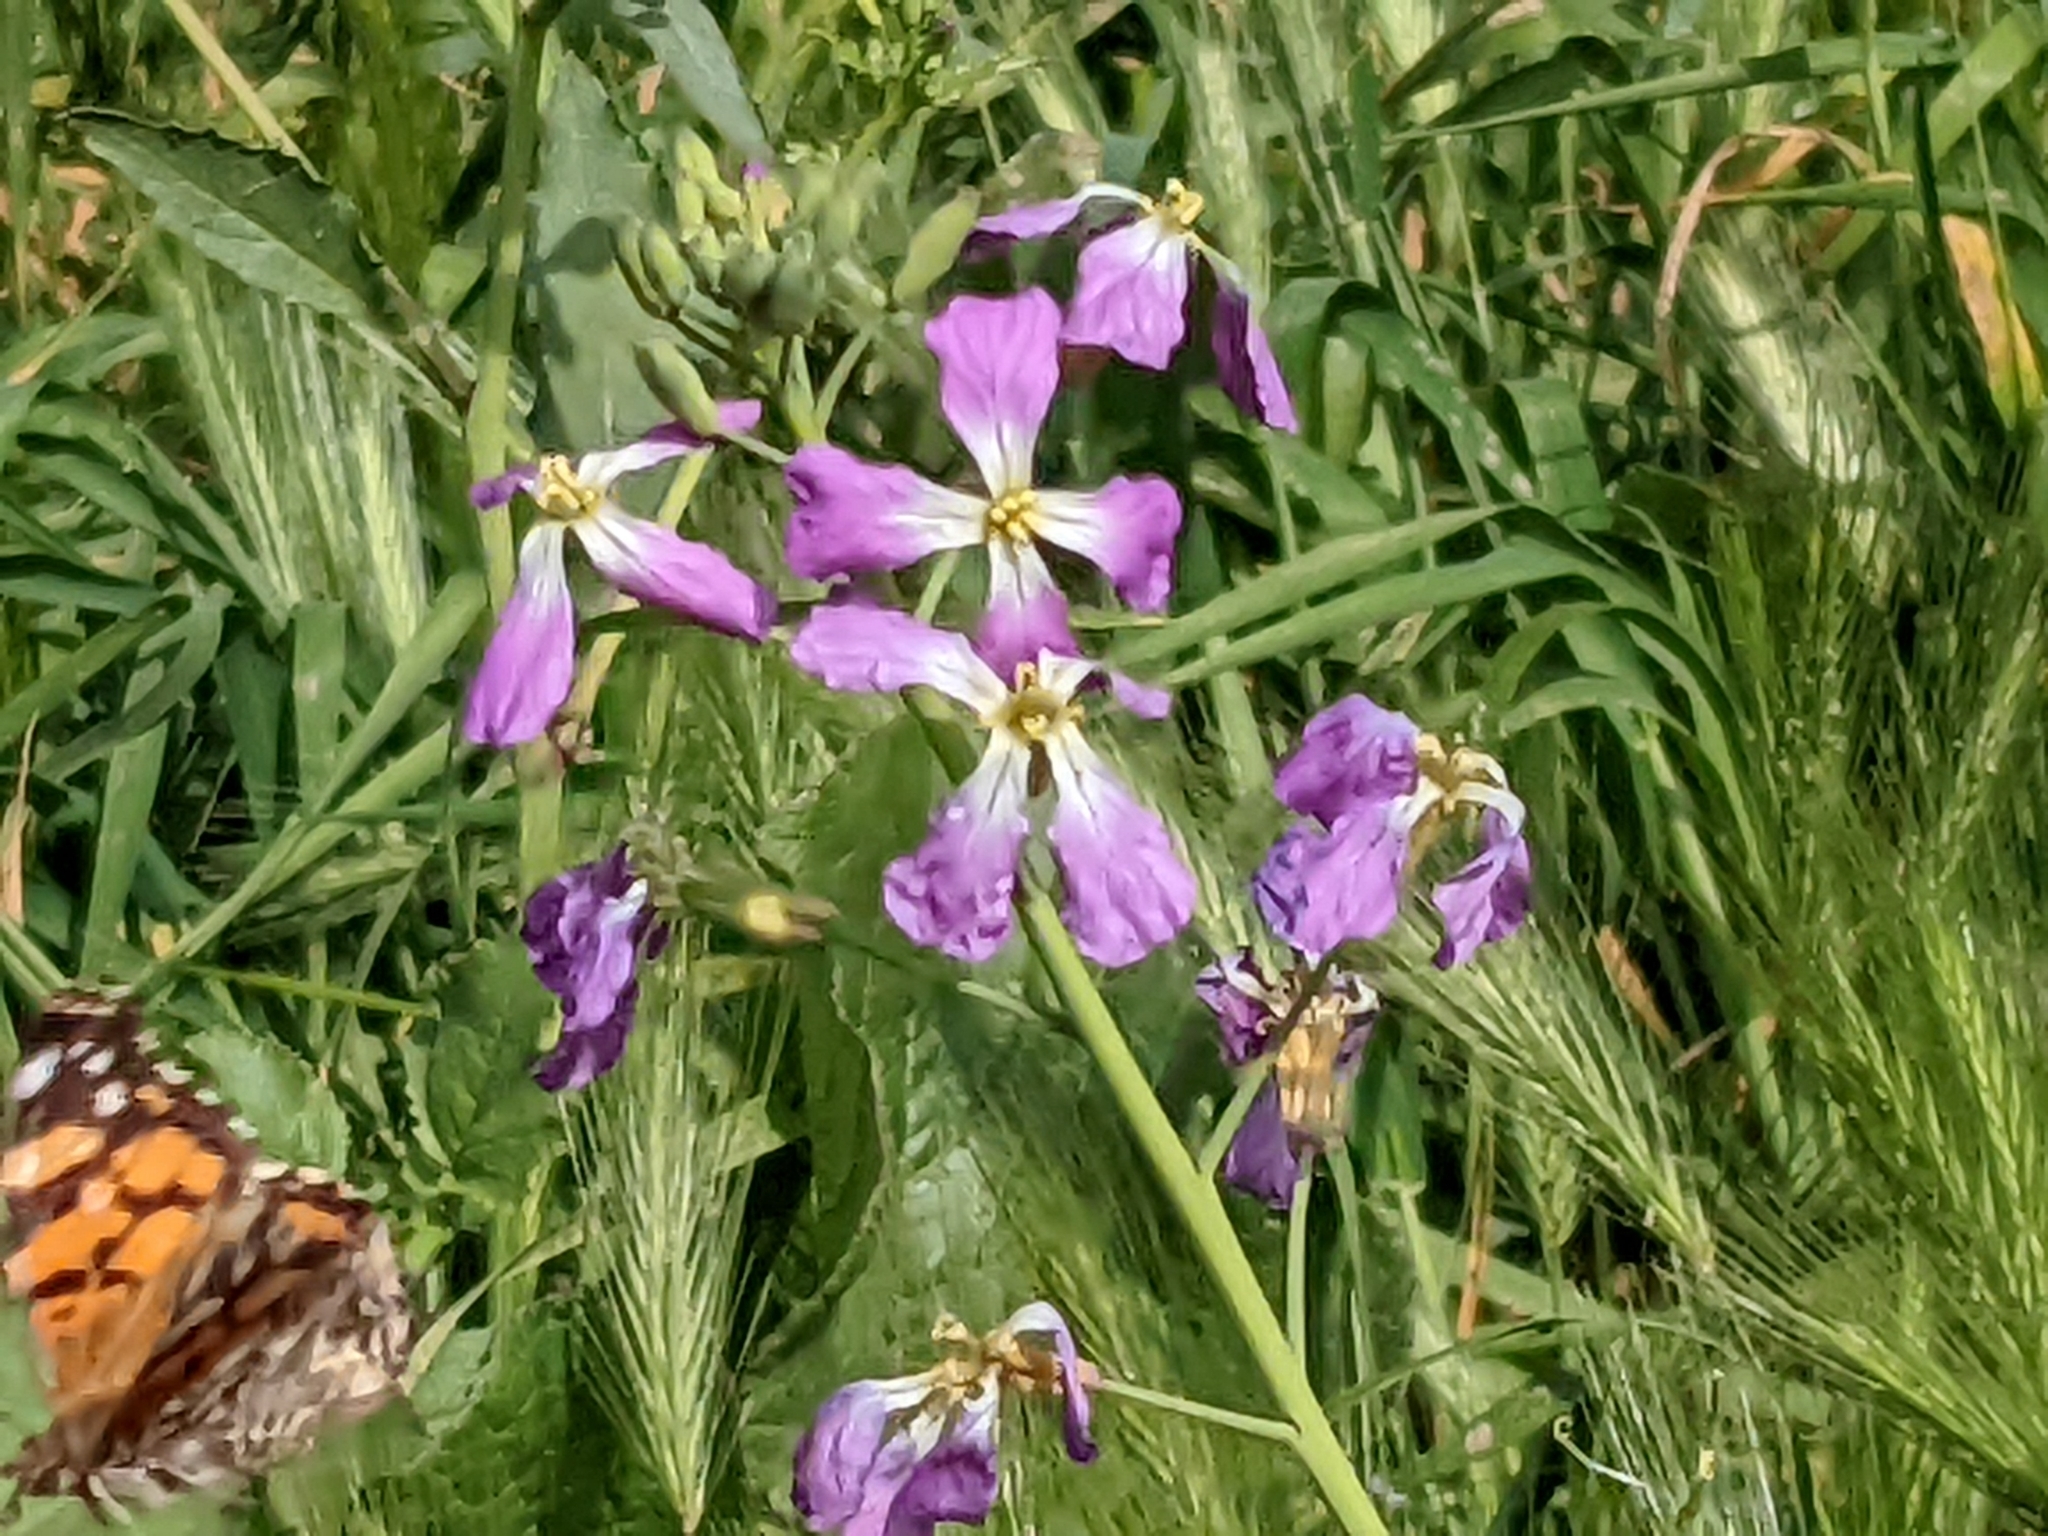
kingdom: Plantae
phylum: Tracheophyta
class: Magnoliopsida
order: Brassicales
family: Brassicaceae
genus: Raphanus
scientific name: Raphanus sativus
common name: Cultivated radish
